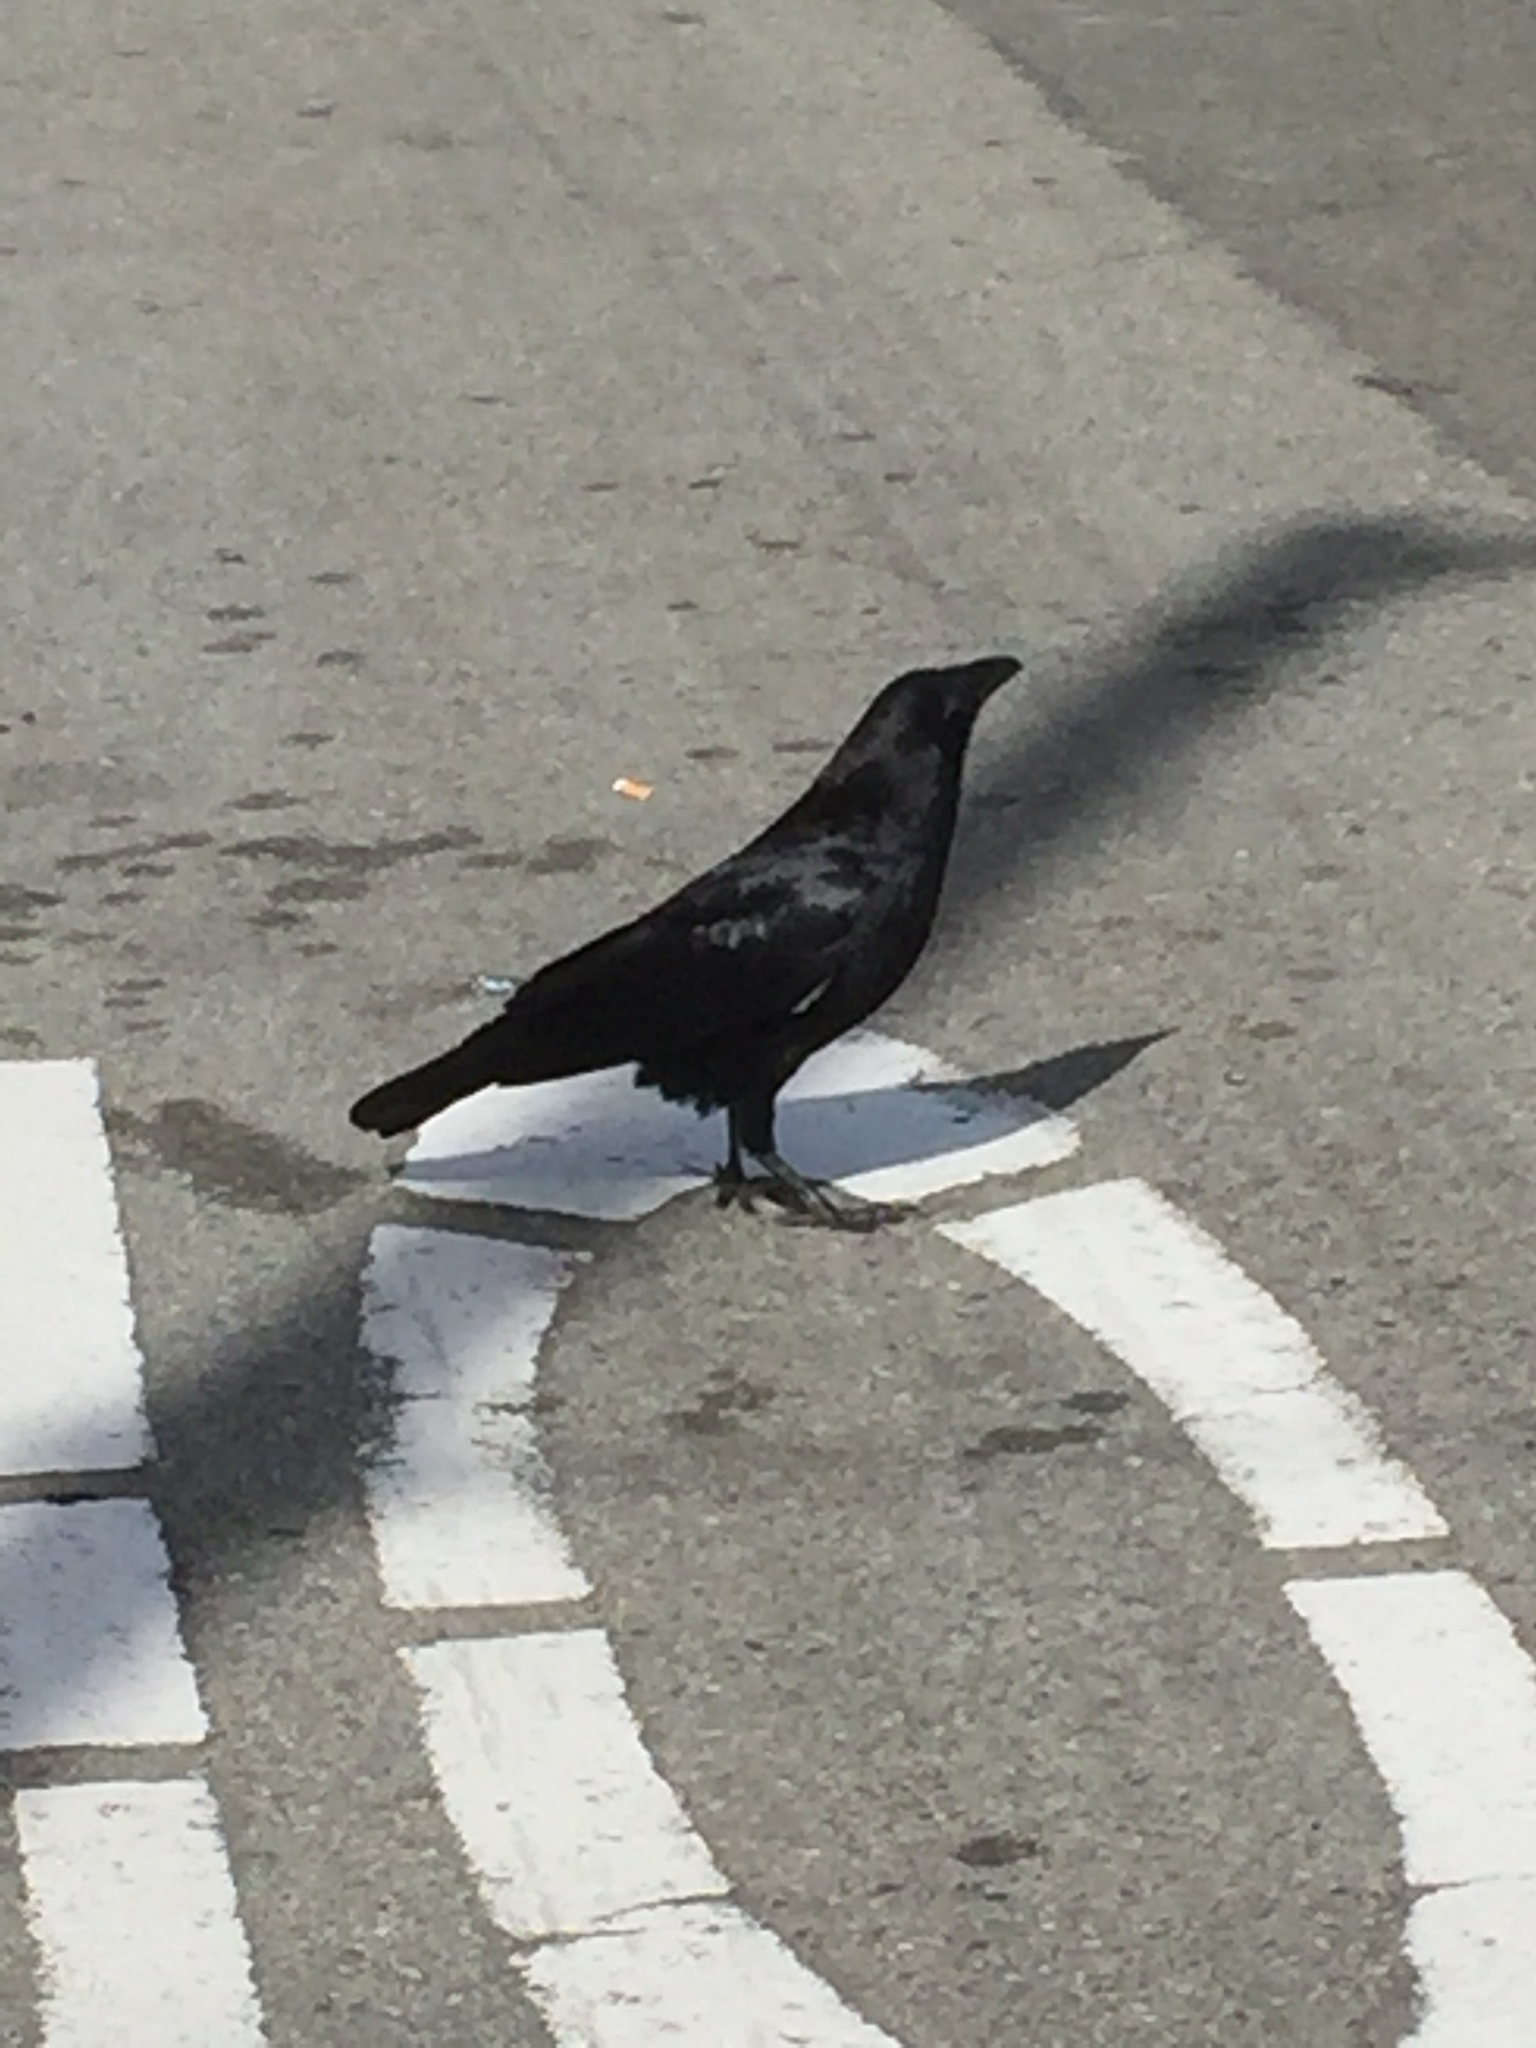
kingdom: Animalia
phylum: Chordata
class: Aves
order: Passeriformes
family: Corvidae
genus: Corvus
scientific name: Corvus corax
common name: Common raven
